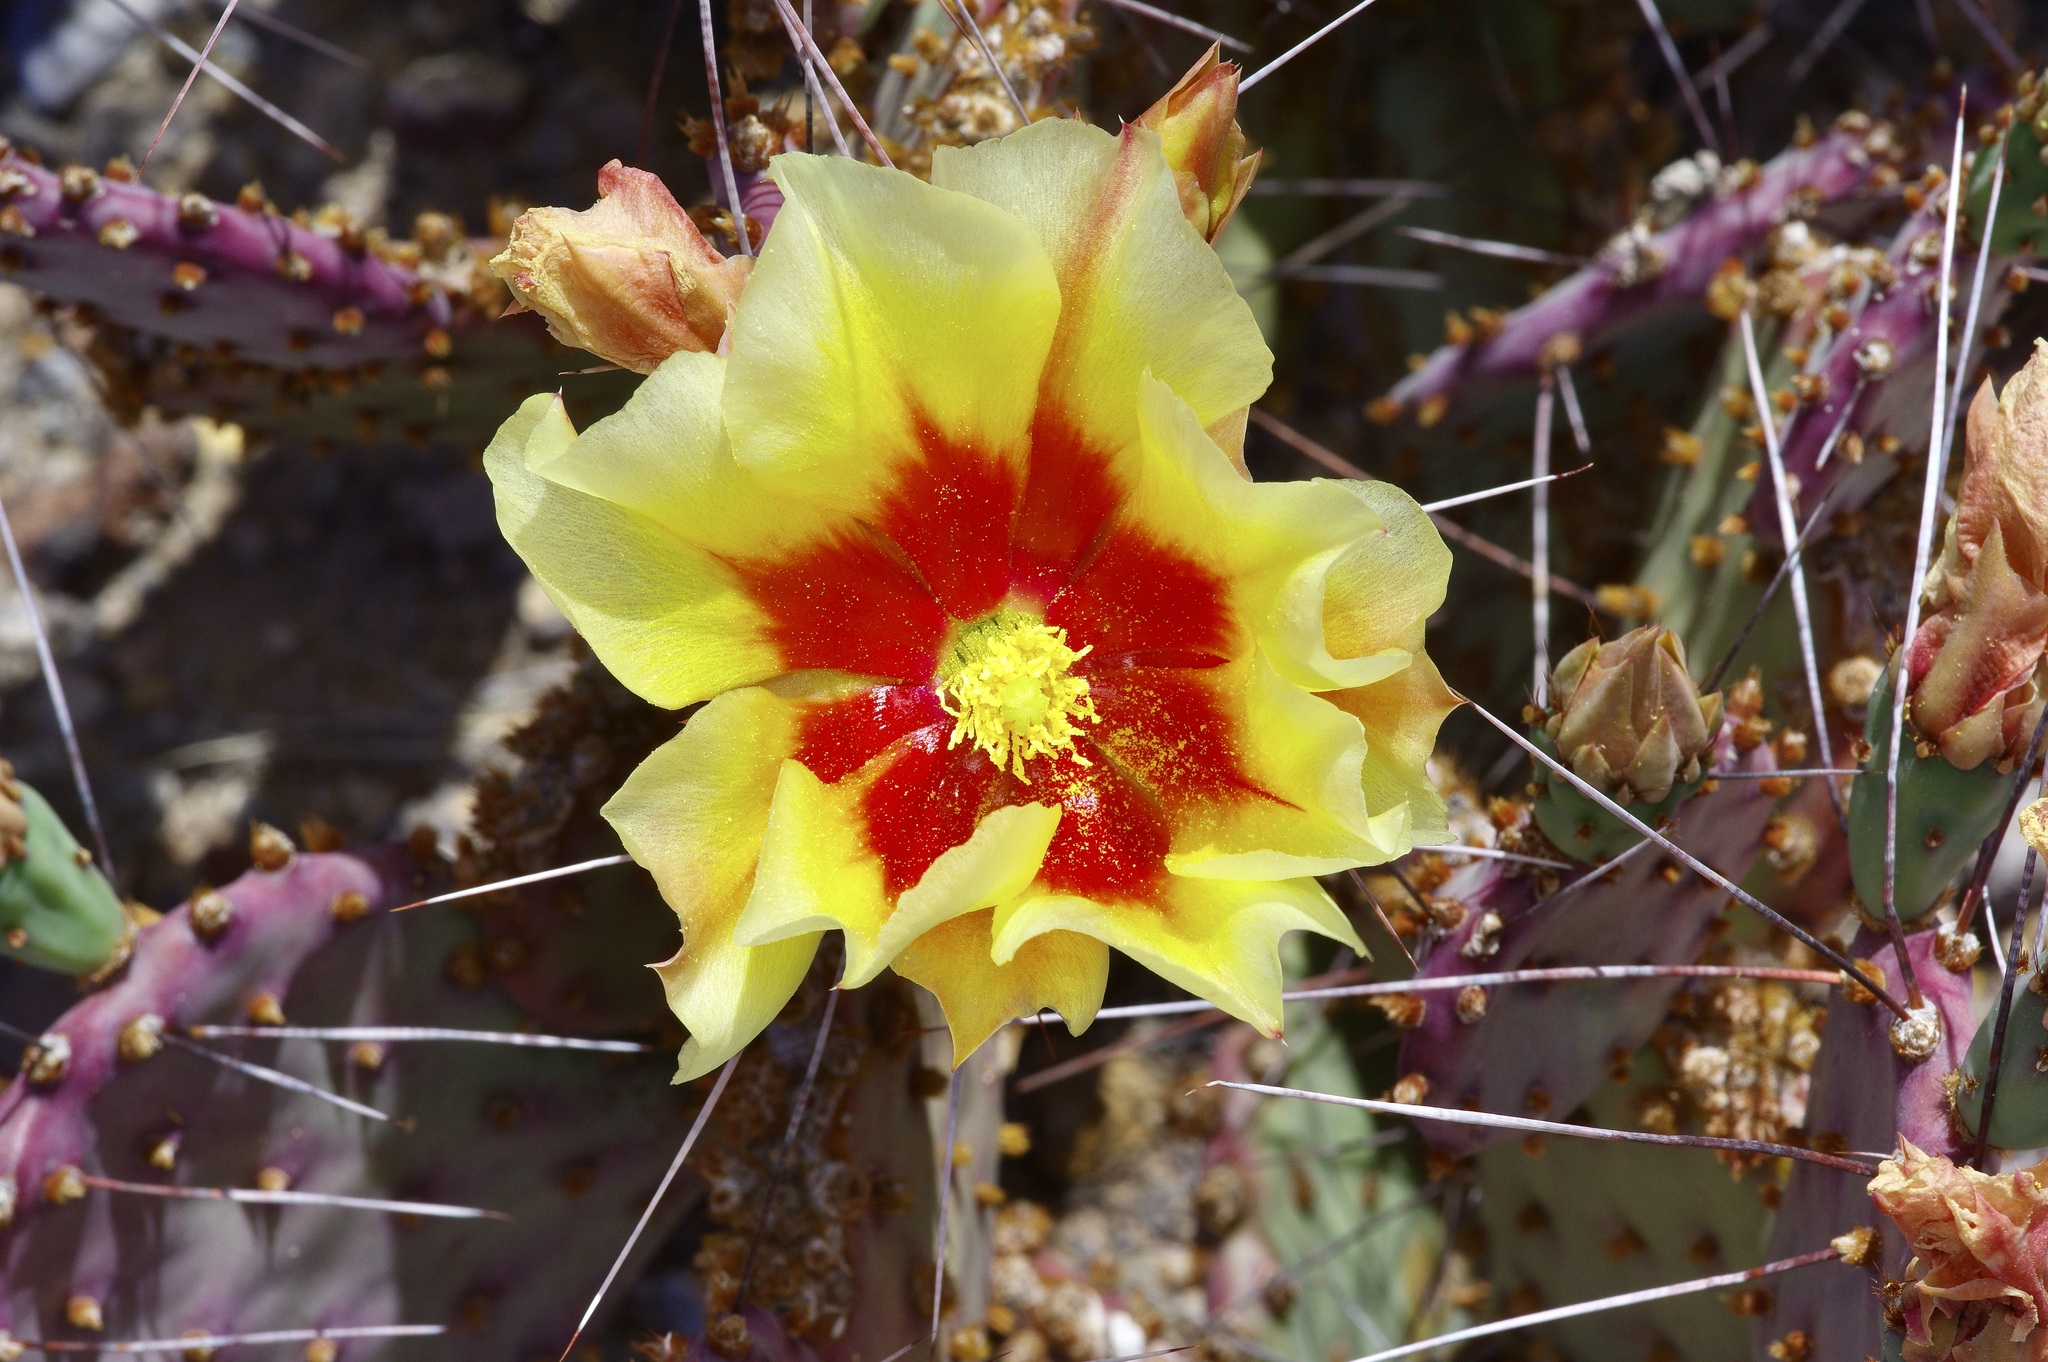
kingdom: Plantae
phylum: Tracheophyta
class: Magnoliopsida
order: Caryophyllales
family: Cactaceae
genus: Opuntia
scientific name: Opuntia aureispina
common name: Golden-spined prickly-pear
